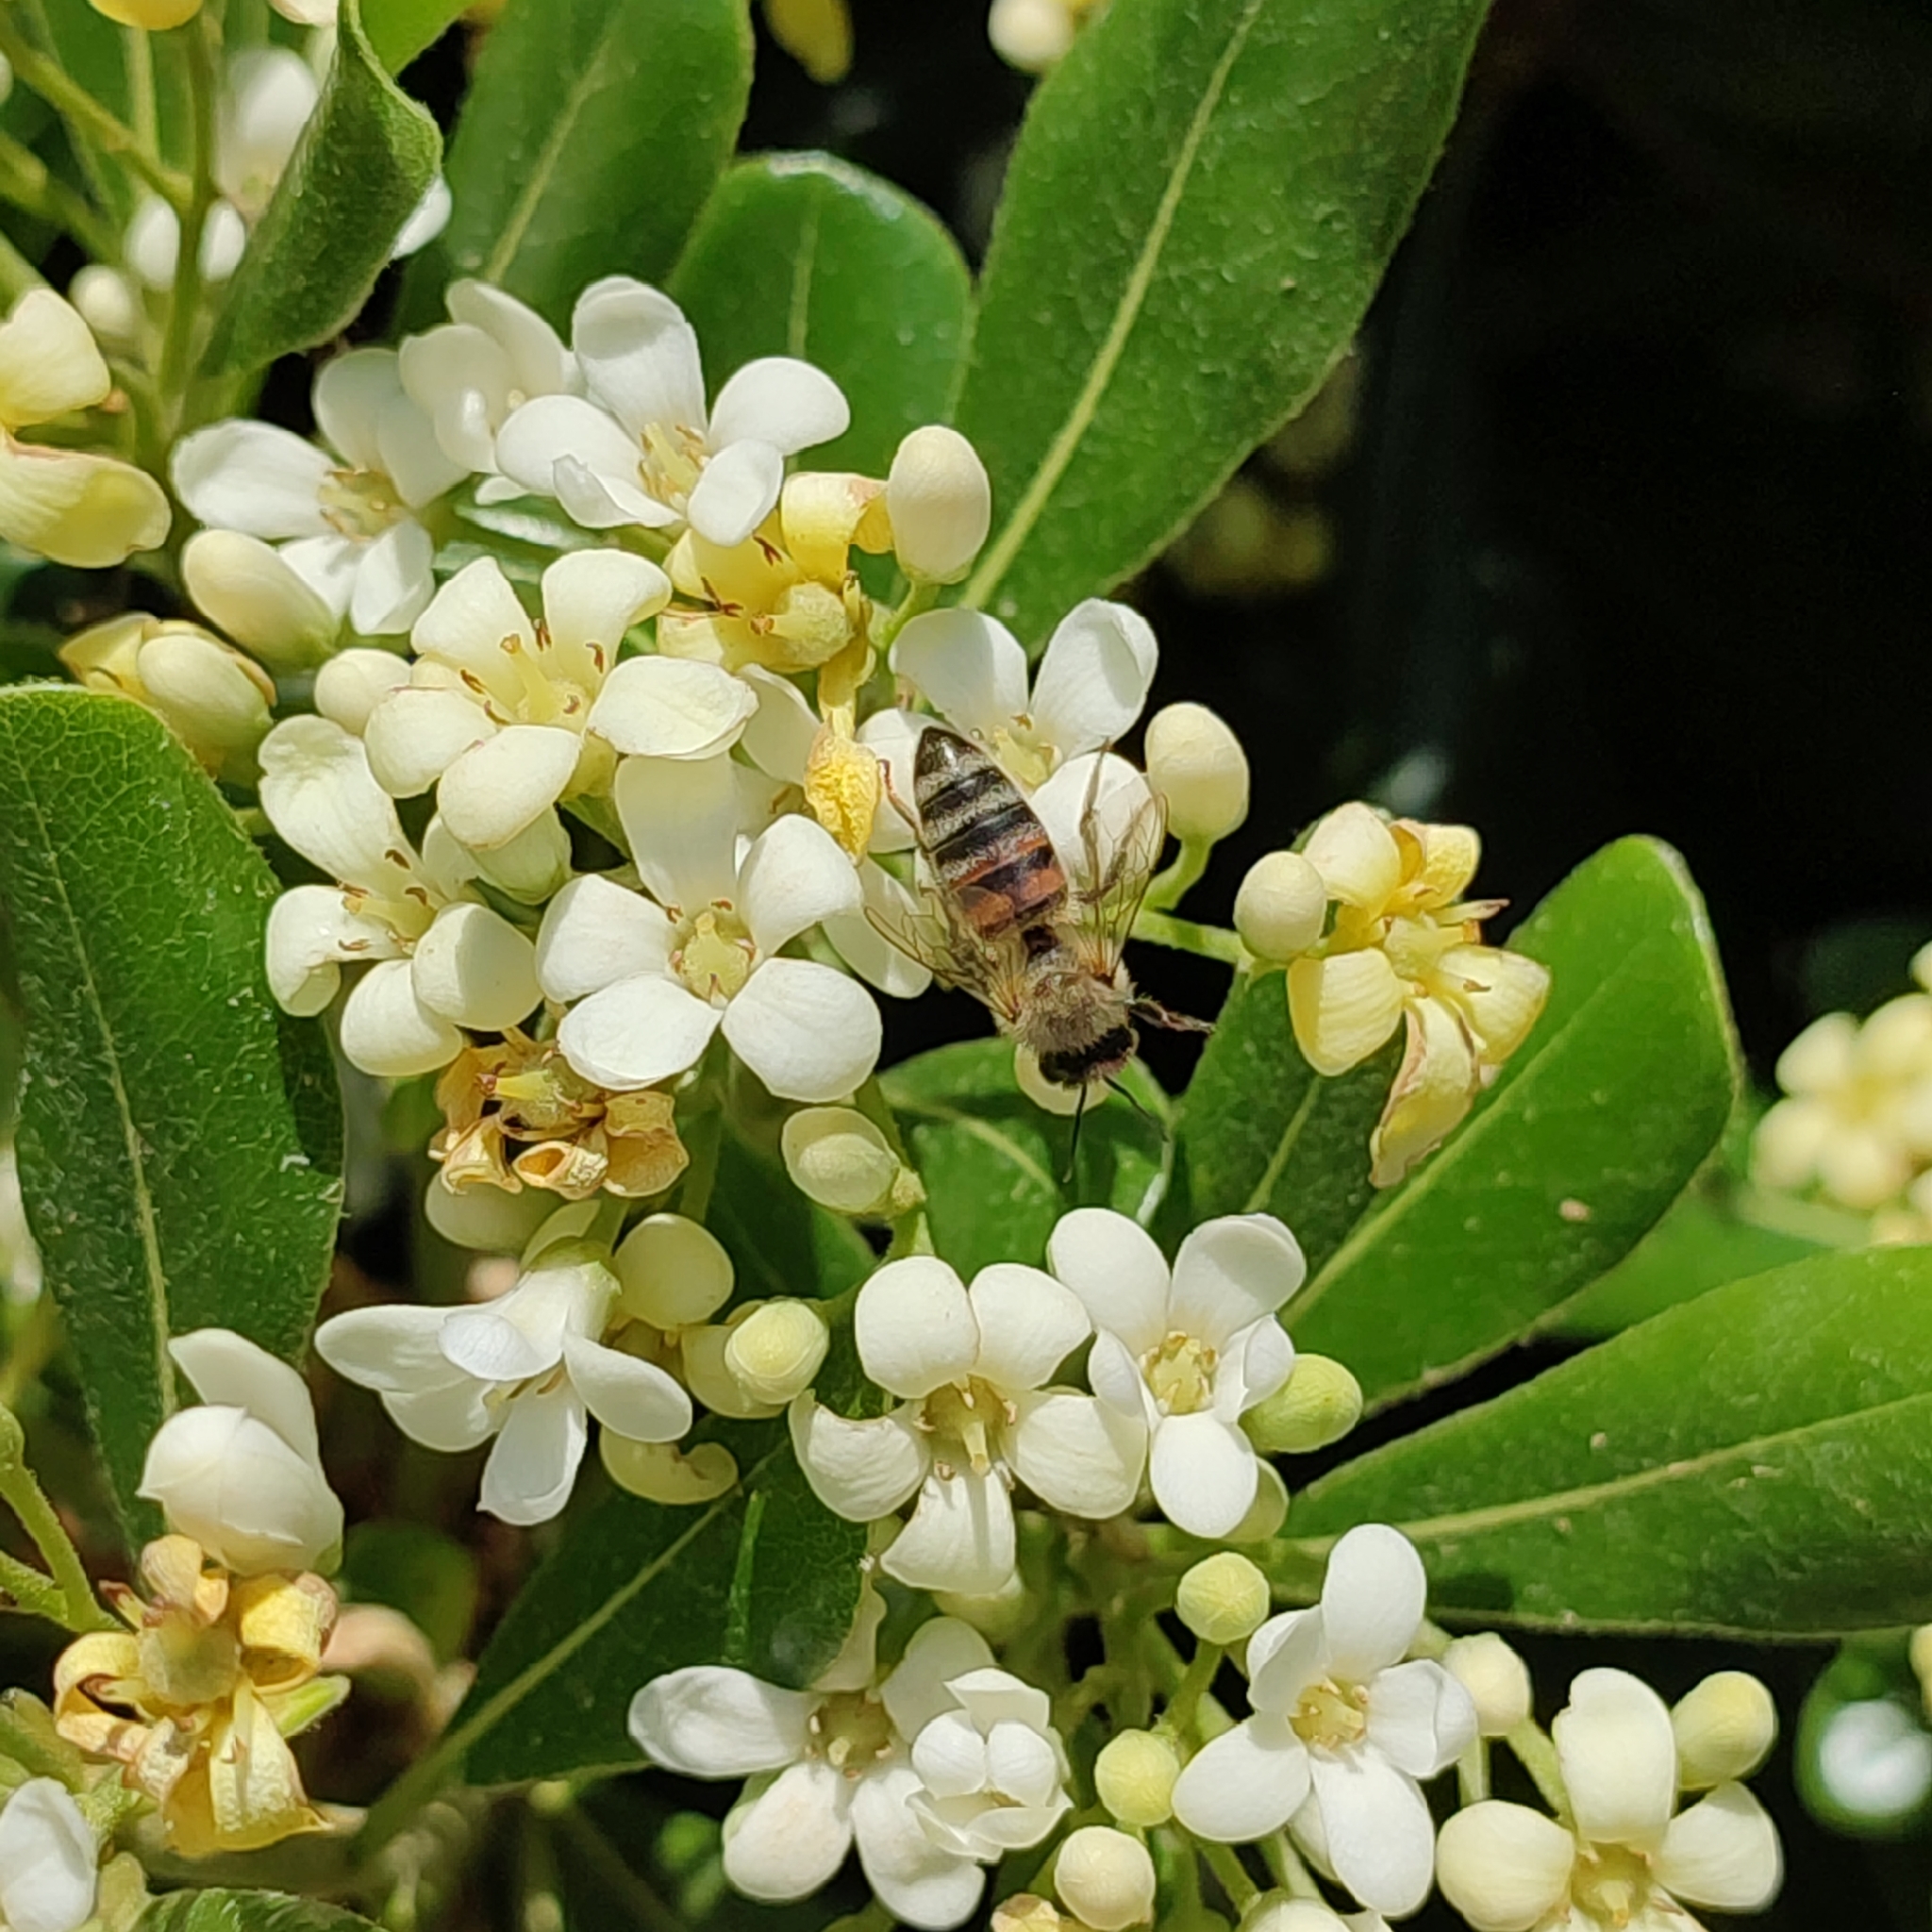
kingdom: Animalia
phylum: Arthropoda
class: Insecta
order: Hymenoptera
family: Apidae
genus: Apis
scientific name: Apis mellifera
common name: Honey bee
